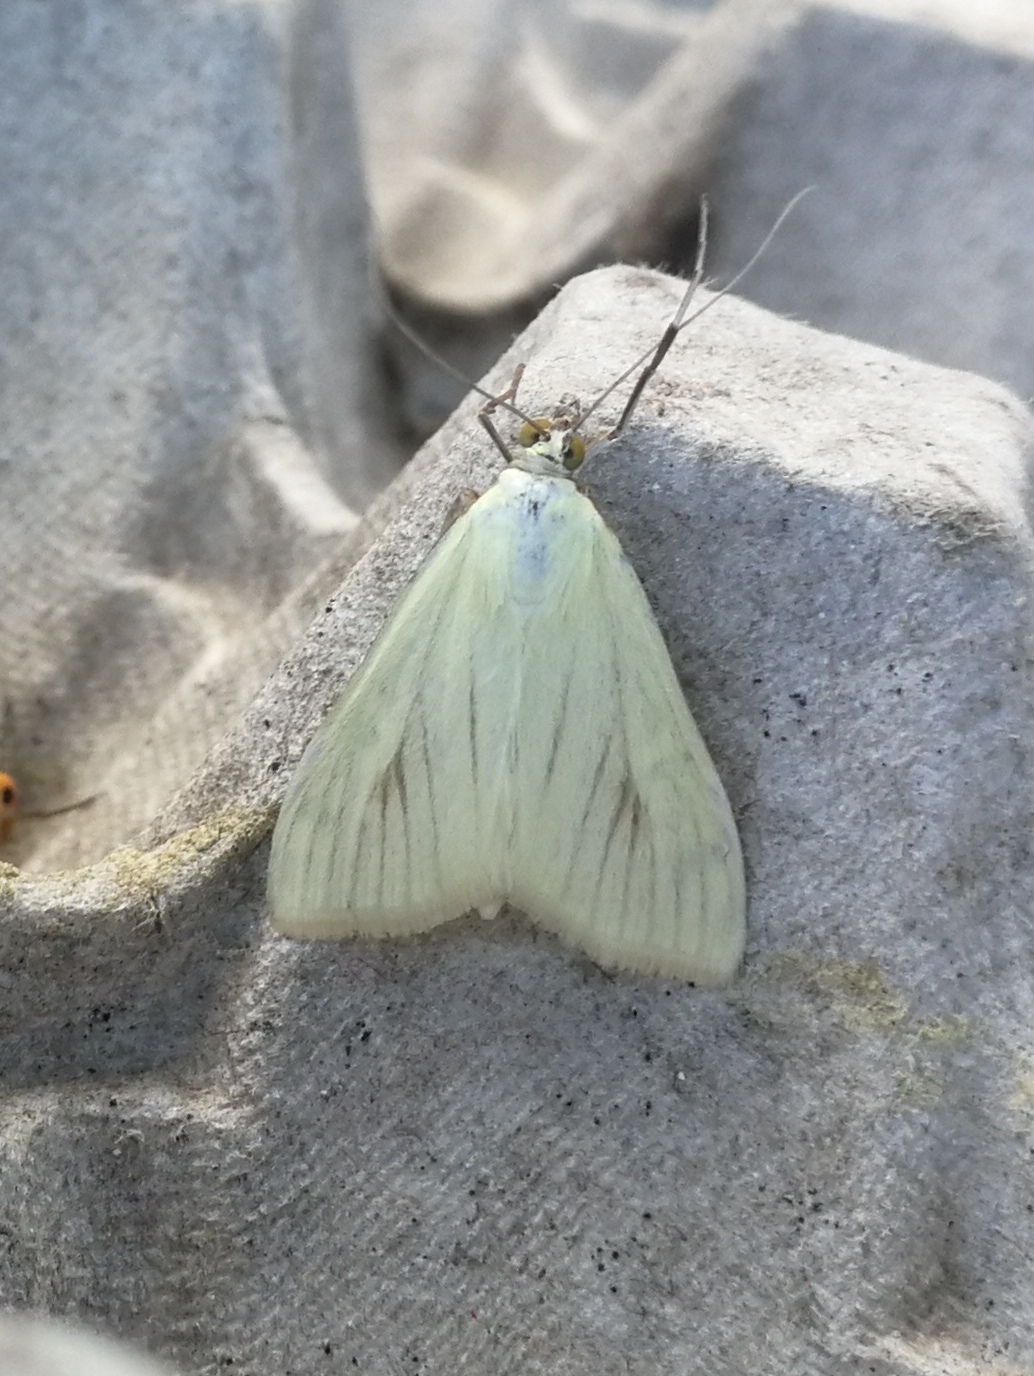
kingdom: Animalia
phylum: Arthropoda
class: Insecta
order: Lepidoptera
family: Crambidae
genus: Sitochroa
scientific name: Sitochroa palealis
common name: Greenish-yellow sitochroa moth
